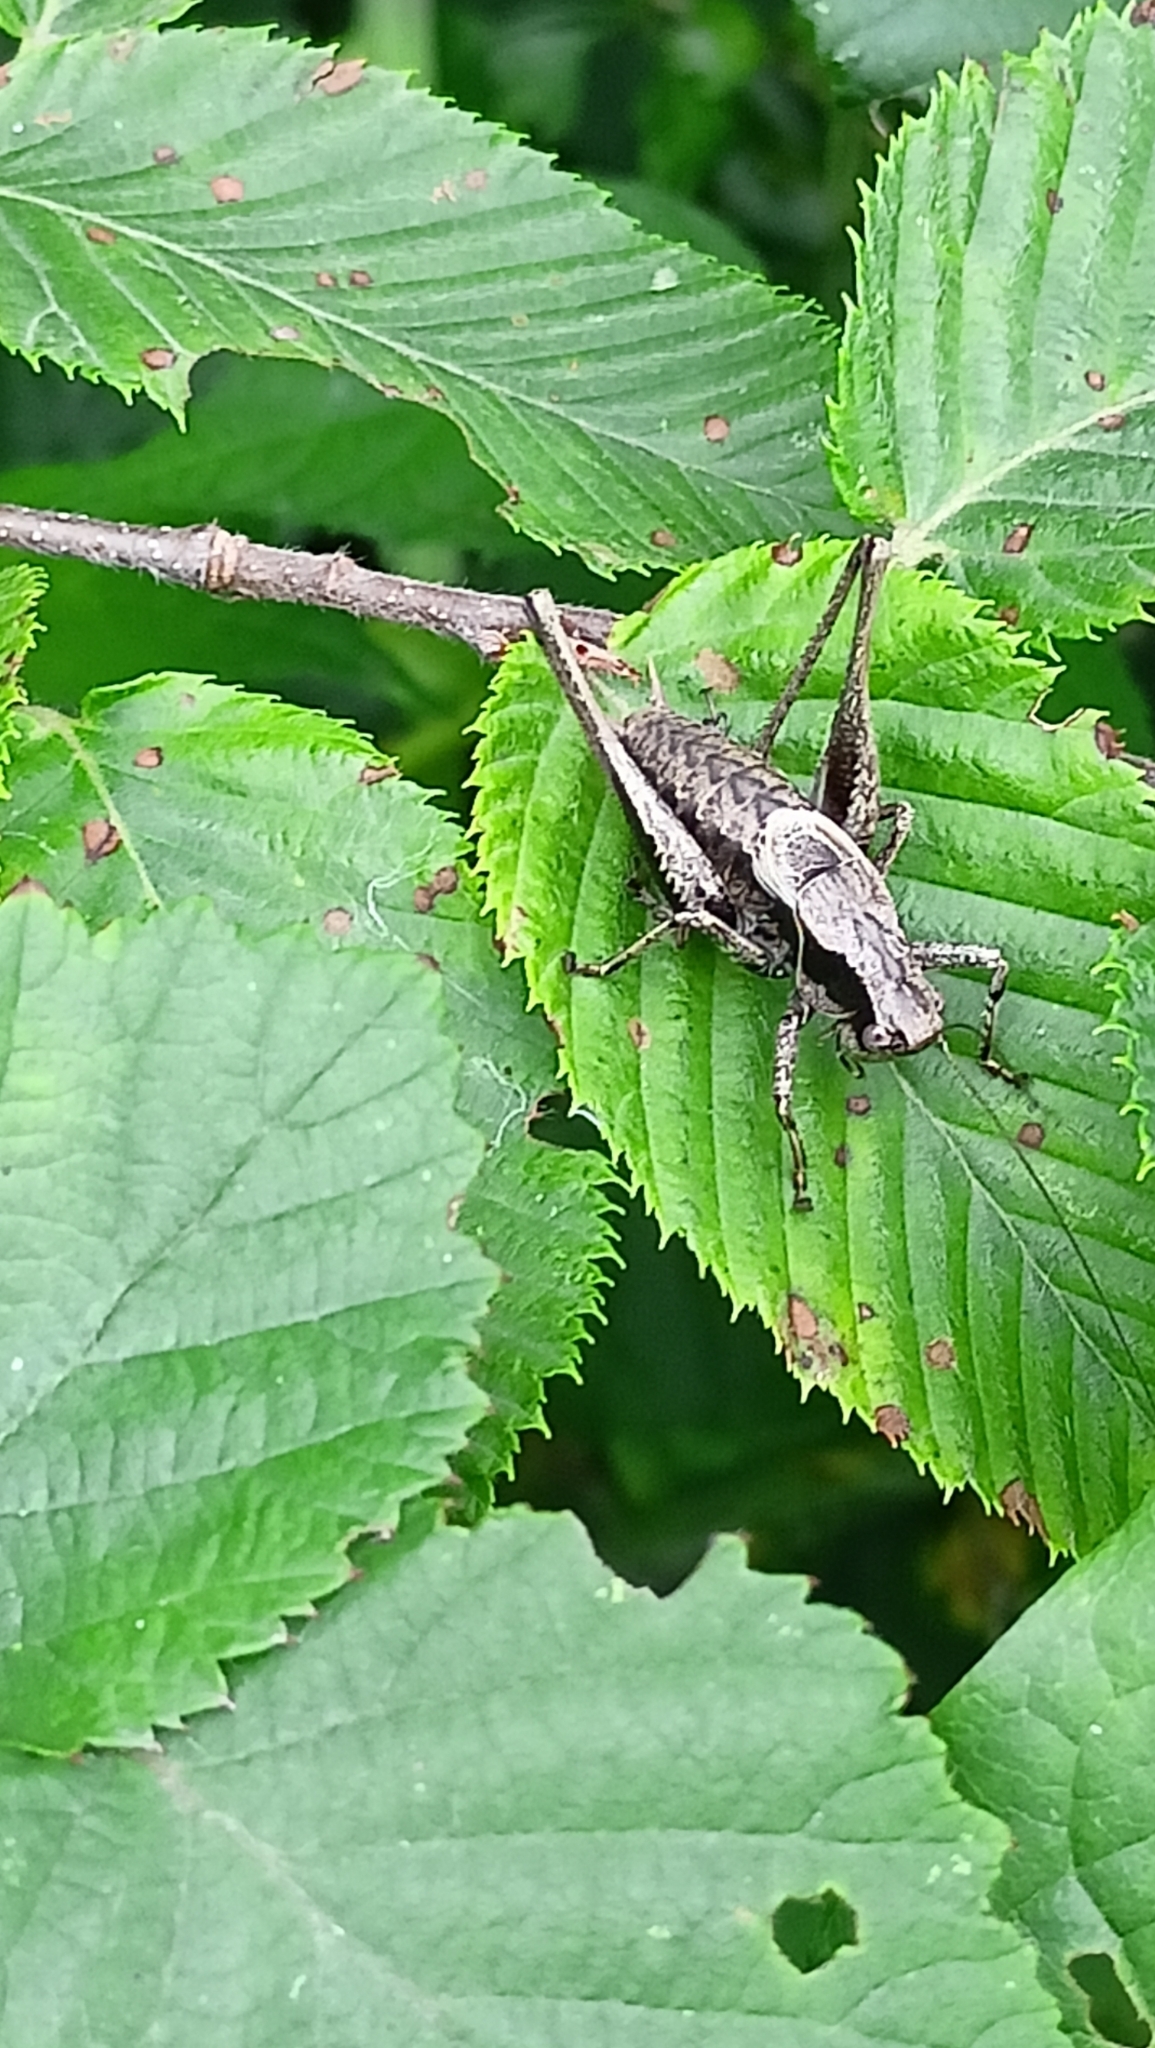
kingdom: Animalia
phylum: Arthropoda
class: Insecta
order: Orthoptera
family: Tettigoniidae
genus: Pholidoptera
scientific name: Pholidoptera griseoaptera
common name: Dark bush-cricket
